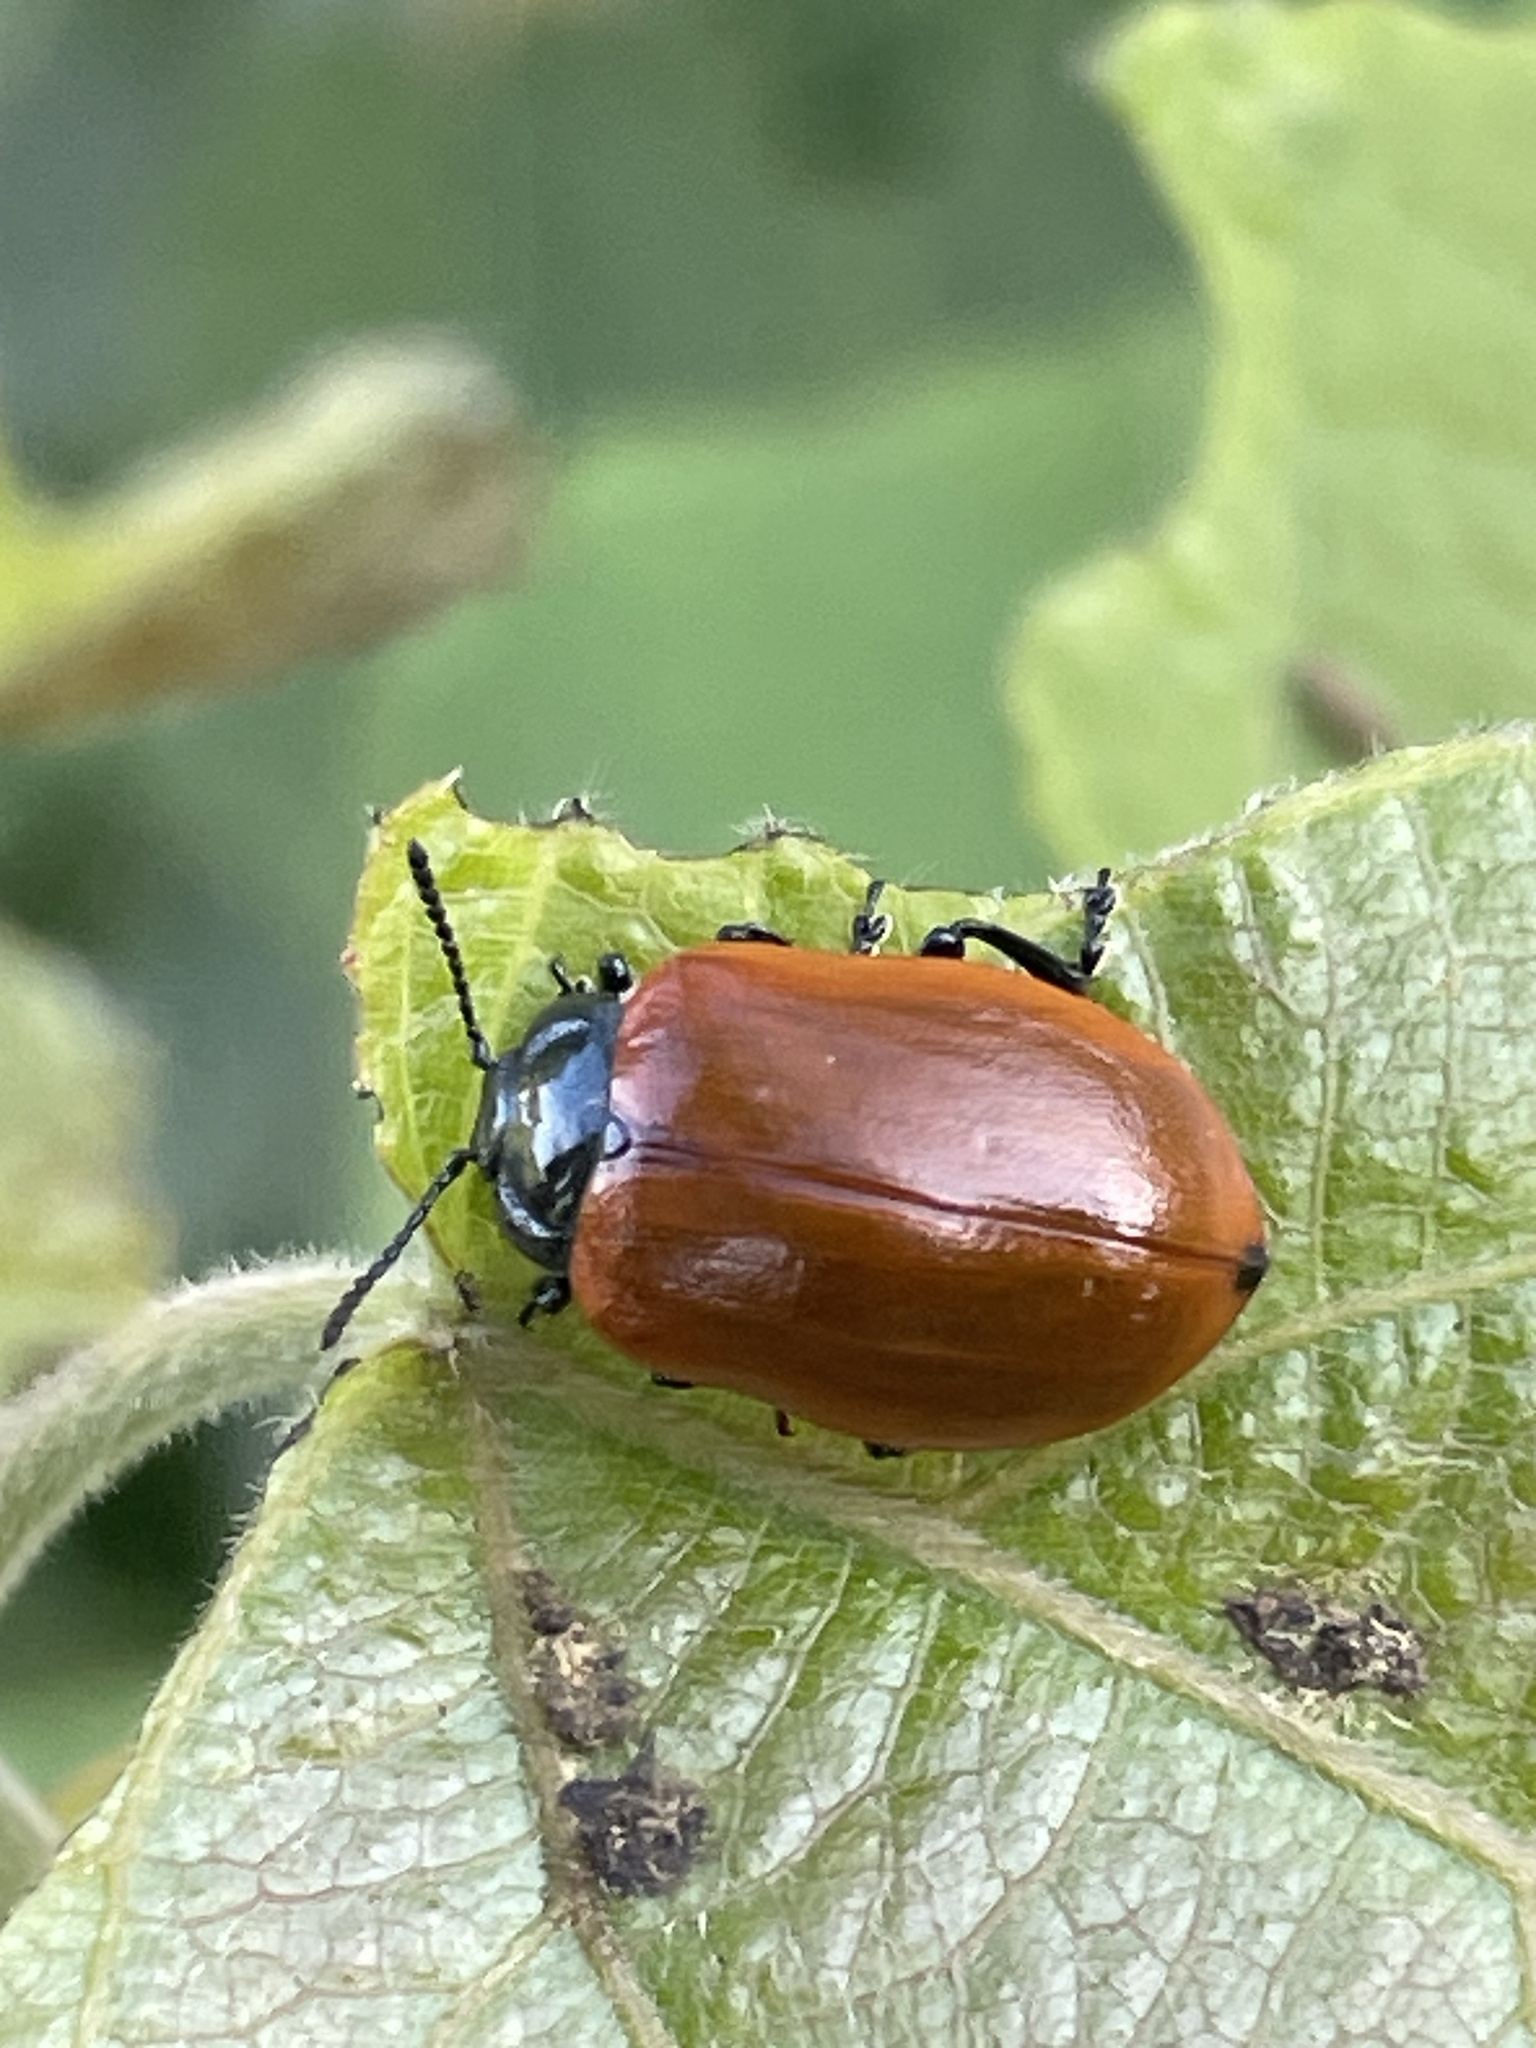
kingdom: Animalia
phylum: Arthropoda
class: Insecta
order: Coleoptera
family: Chrysomelidae
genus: Chrysomela
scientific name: Chrysomela populi
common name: Red poplar leaf beetle
